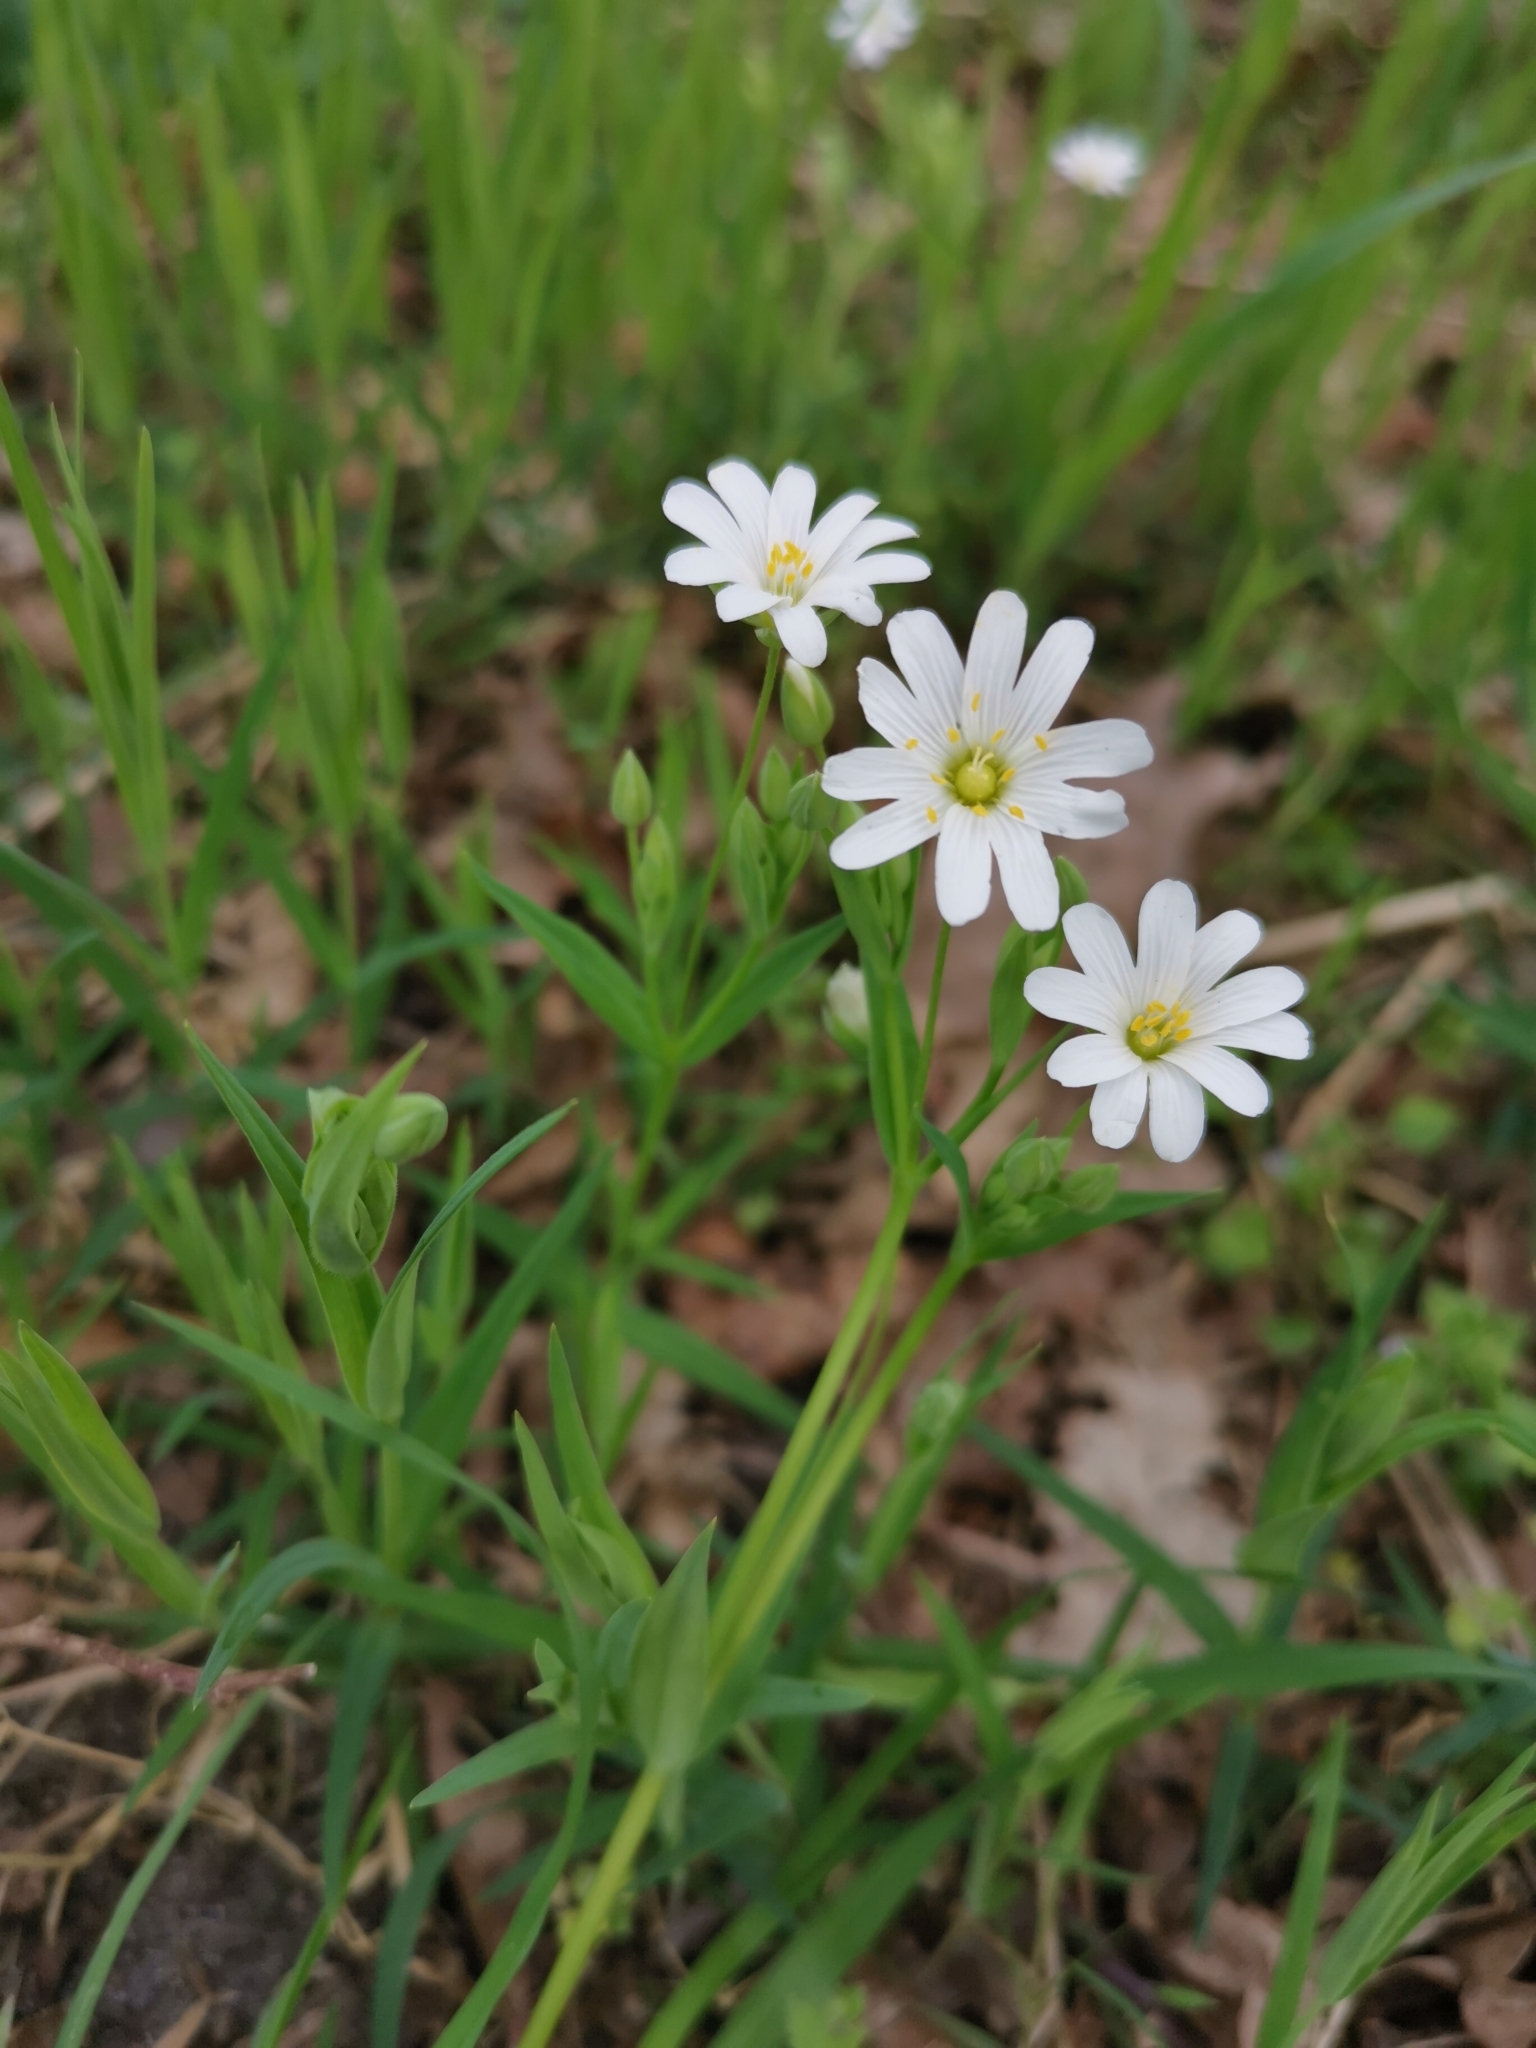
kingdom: Plantae
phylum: Tracheophyta
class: Magnoliopsida
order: Caryophyllales
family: Caryophyllaceae
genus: Rabelera
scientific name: Rabelera holostea
